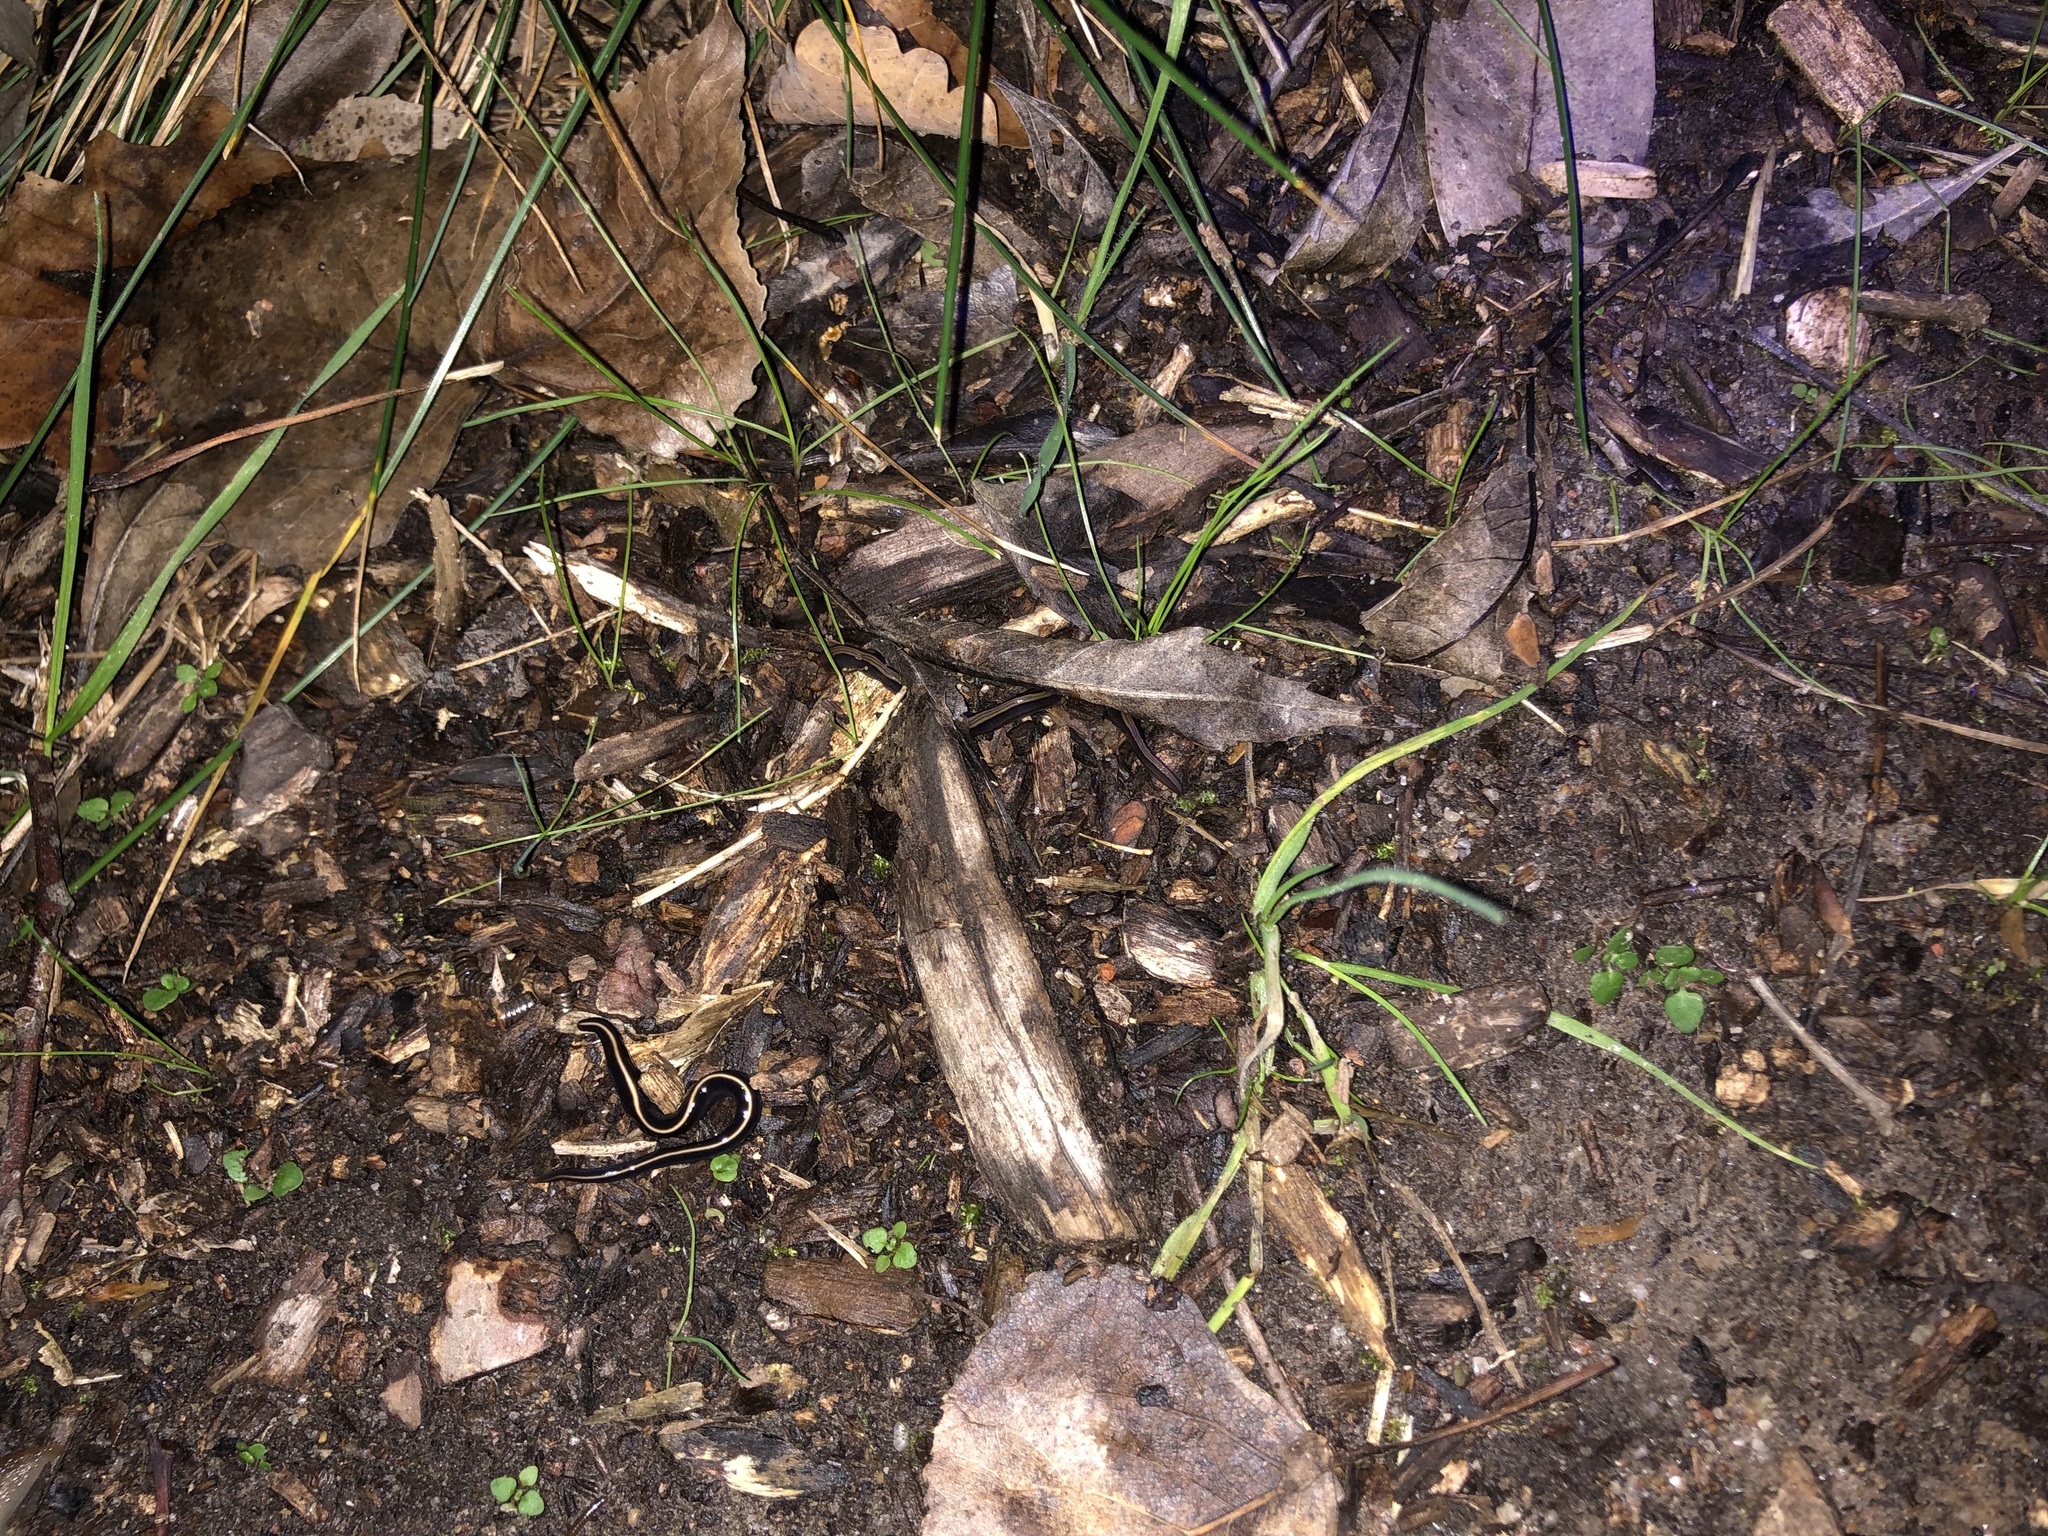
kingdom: Animalia
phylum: Platyhelminthes
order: Tricladida
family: Geoplanidae
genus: Caenoplana
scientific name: Caenoplana coerulea
